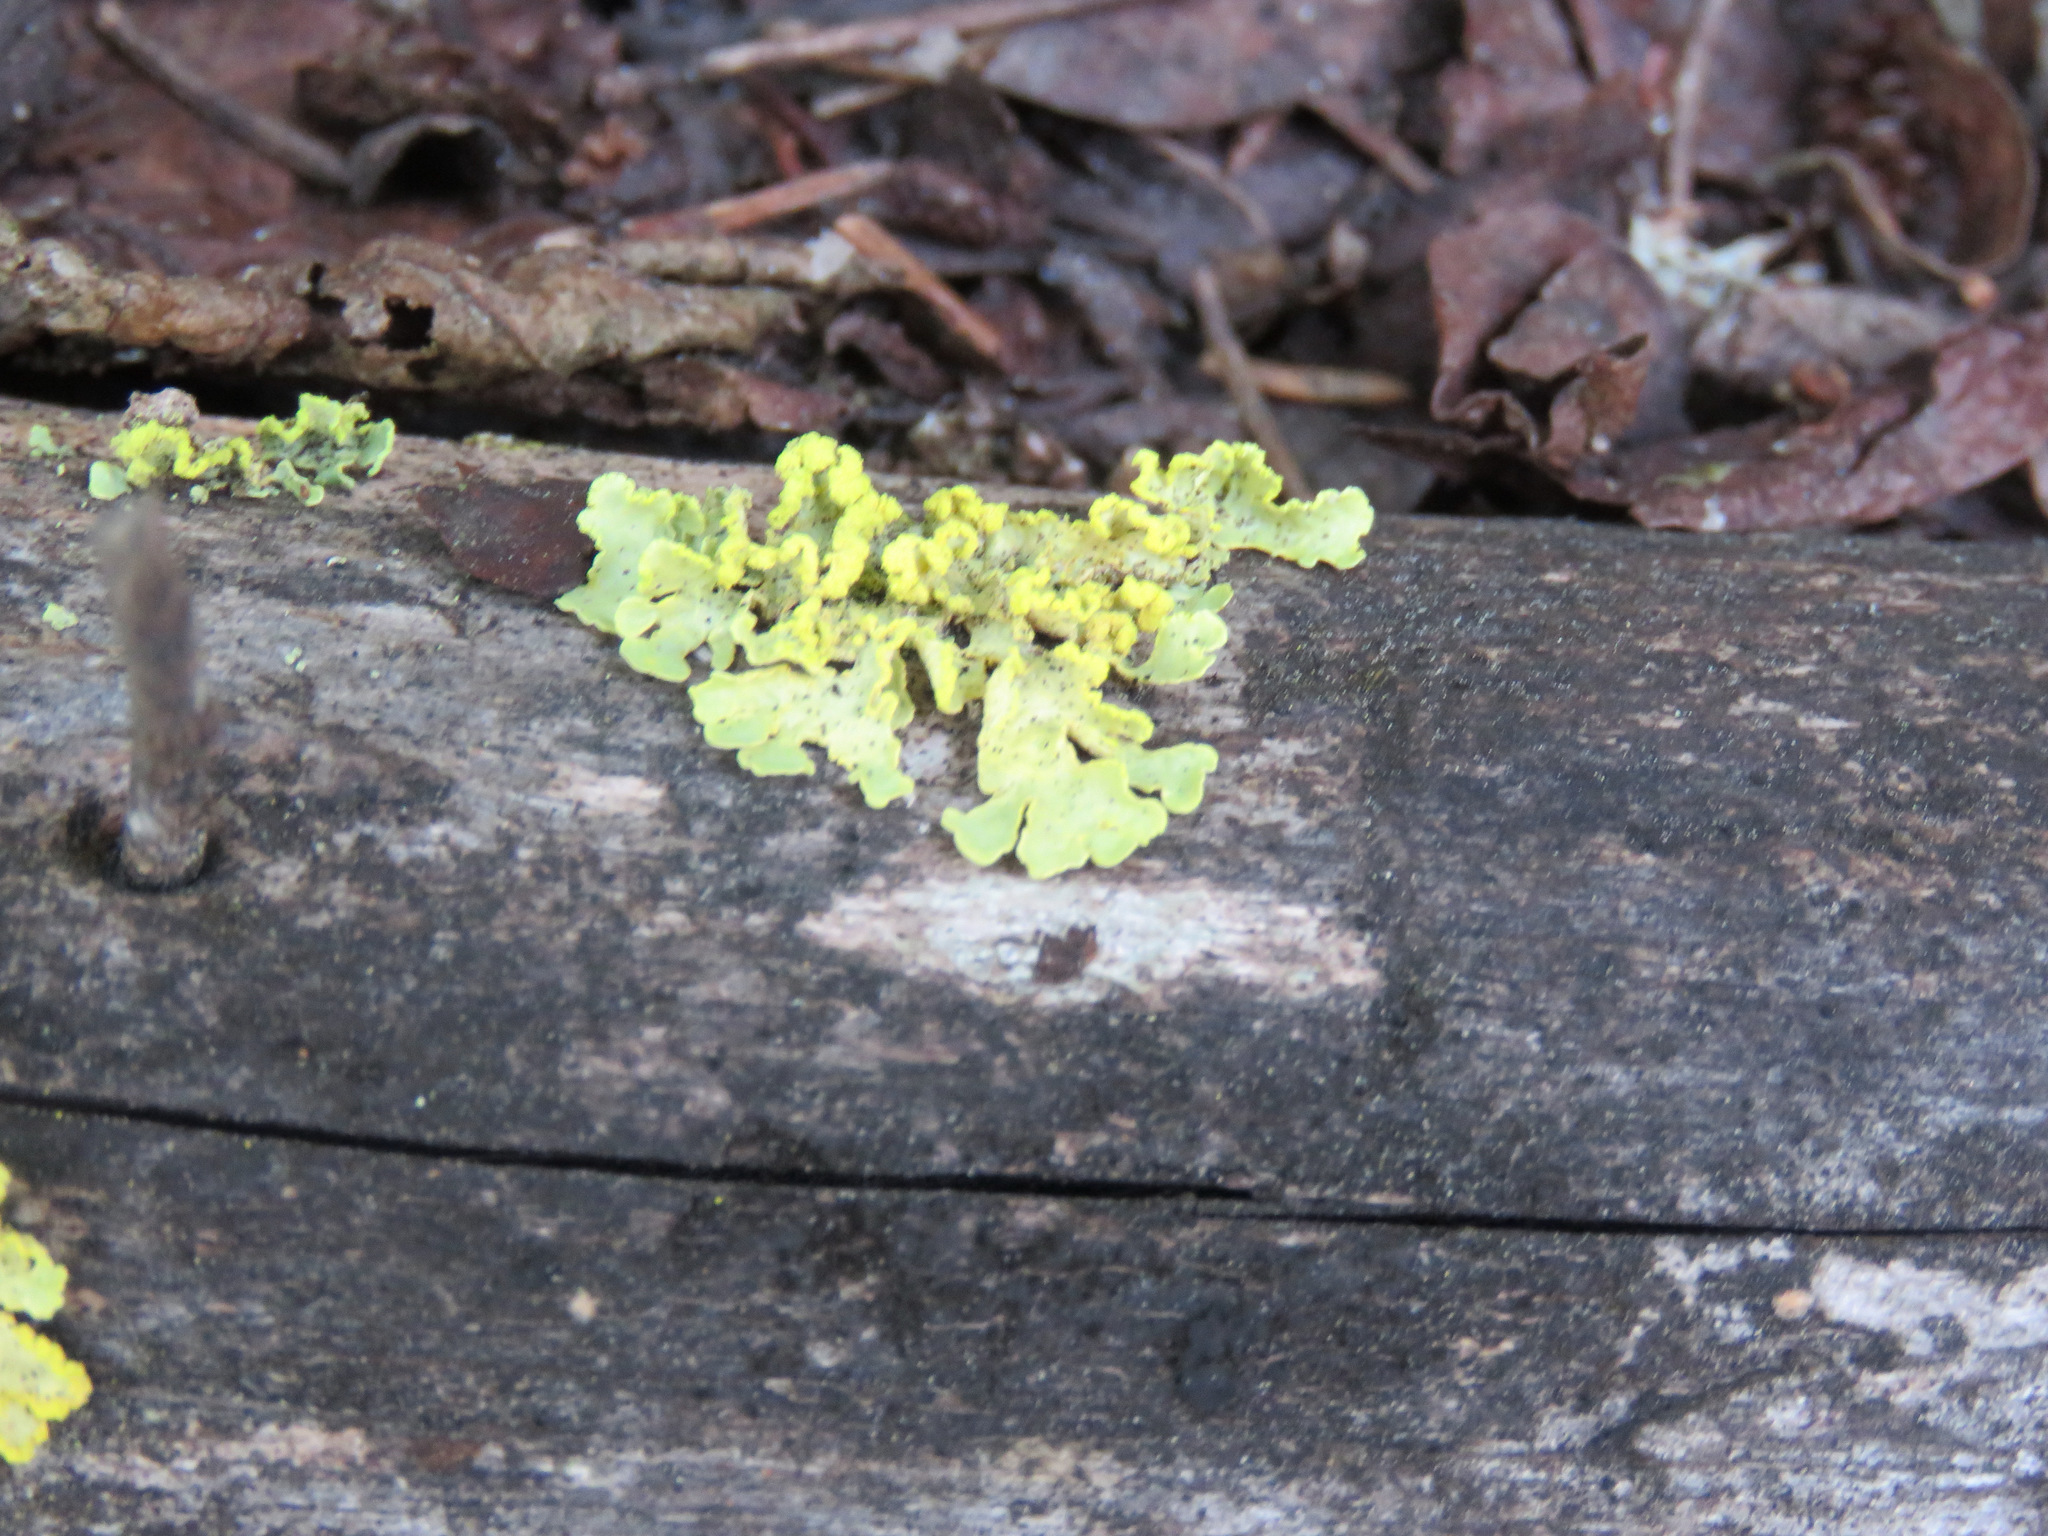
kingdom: Fungi
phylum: Ascomycota
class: Lecanoromycetes
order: Lecanorales
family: Parmeliaceae
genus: Vulpicida
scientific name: Vulpicida pinastri
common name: Powdered sunshine lichen
